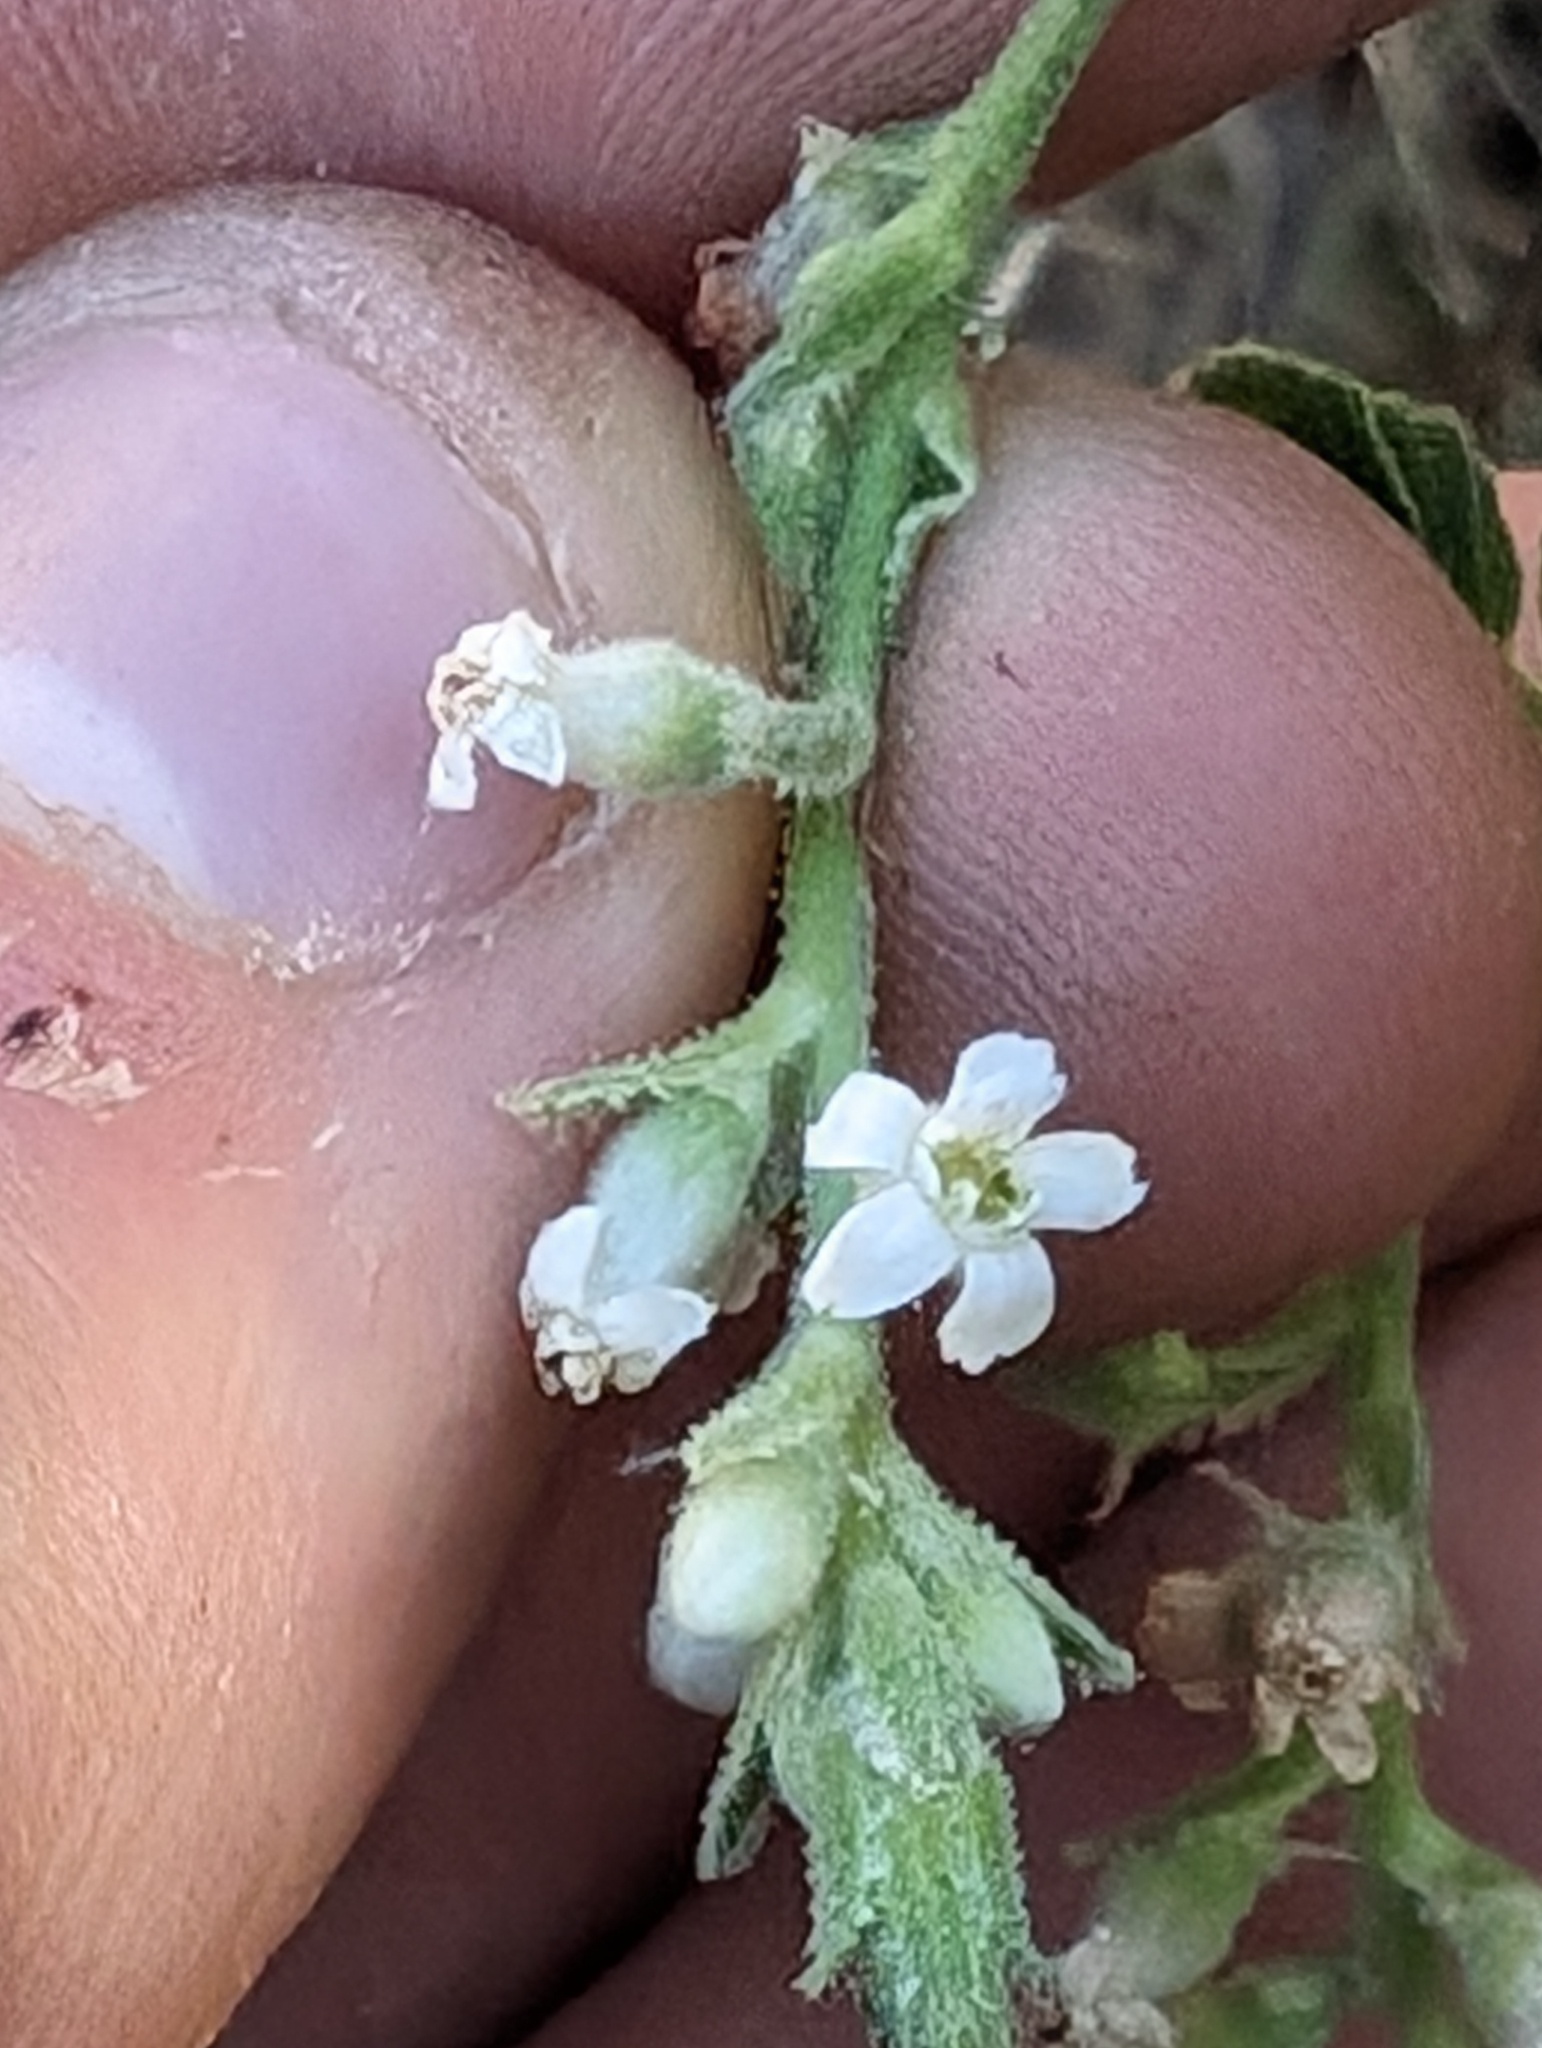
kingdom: Plantae
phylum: Tracheophyta
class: Magnoliopsida
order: Saxifragales
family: Grossulariaceae
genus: Ribes
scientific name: Ribes indecorum
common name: White-flower currant
